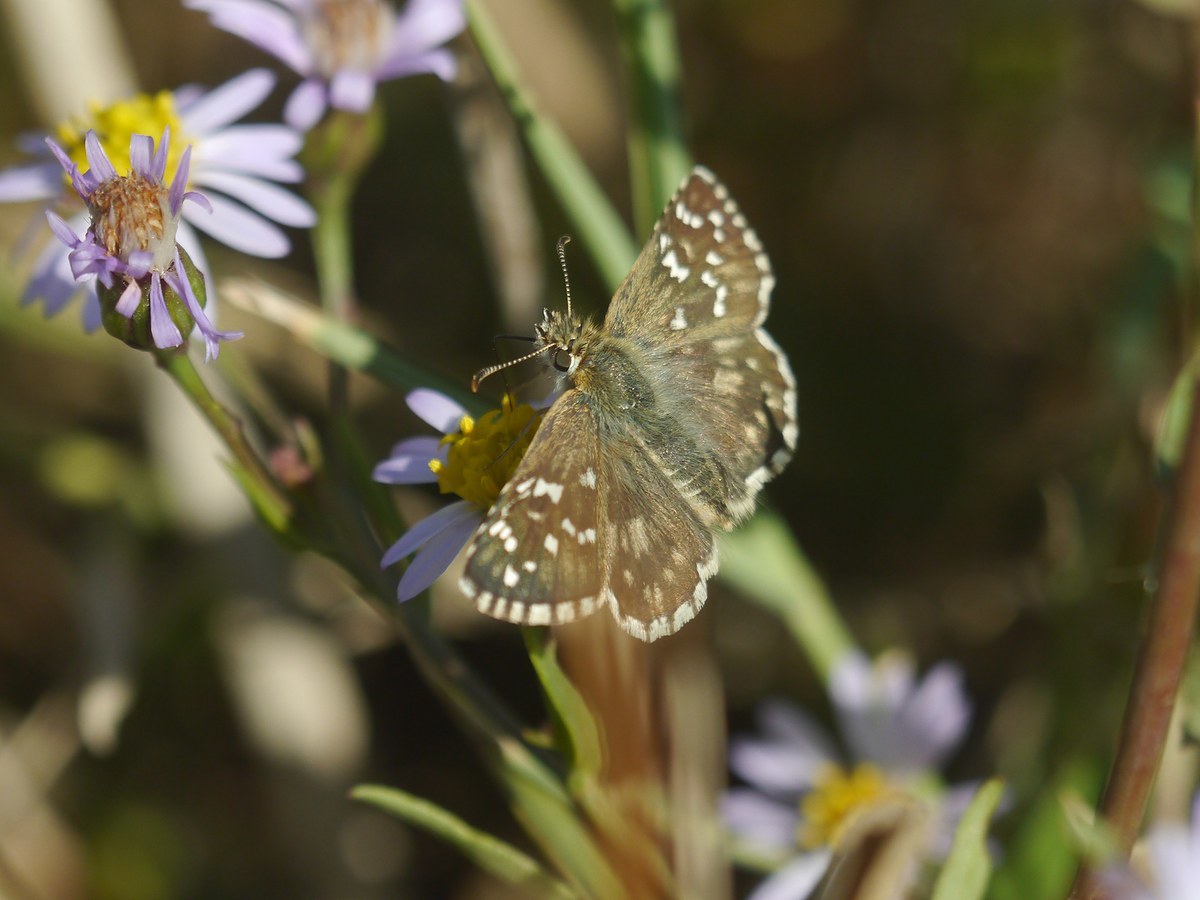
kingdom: Animalia
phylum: Arthropoda
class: Insecta
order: Lepidoptera
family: Hesperiidae
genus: Pyrgus
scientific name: Pyrgus armoricanus
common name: Oberthür's grizzled skipper
